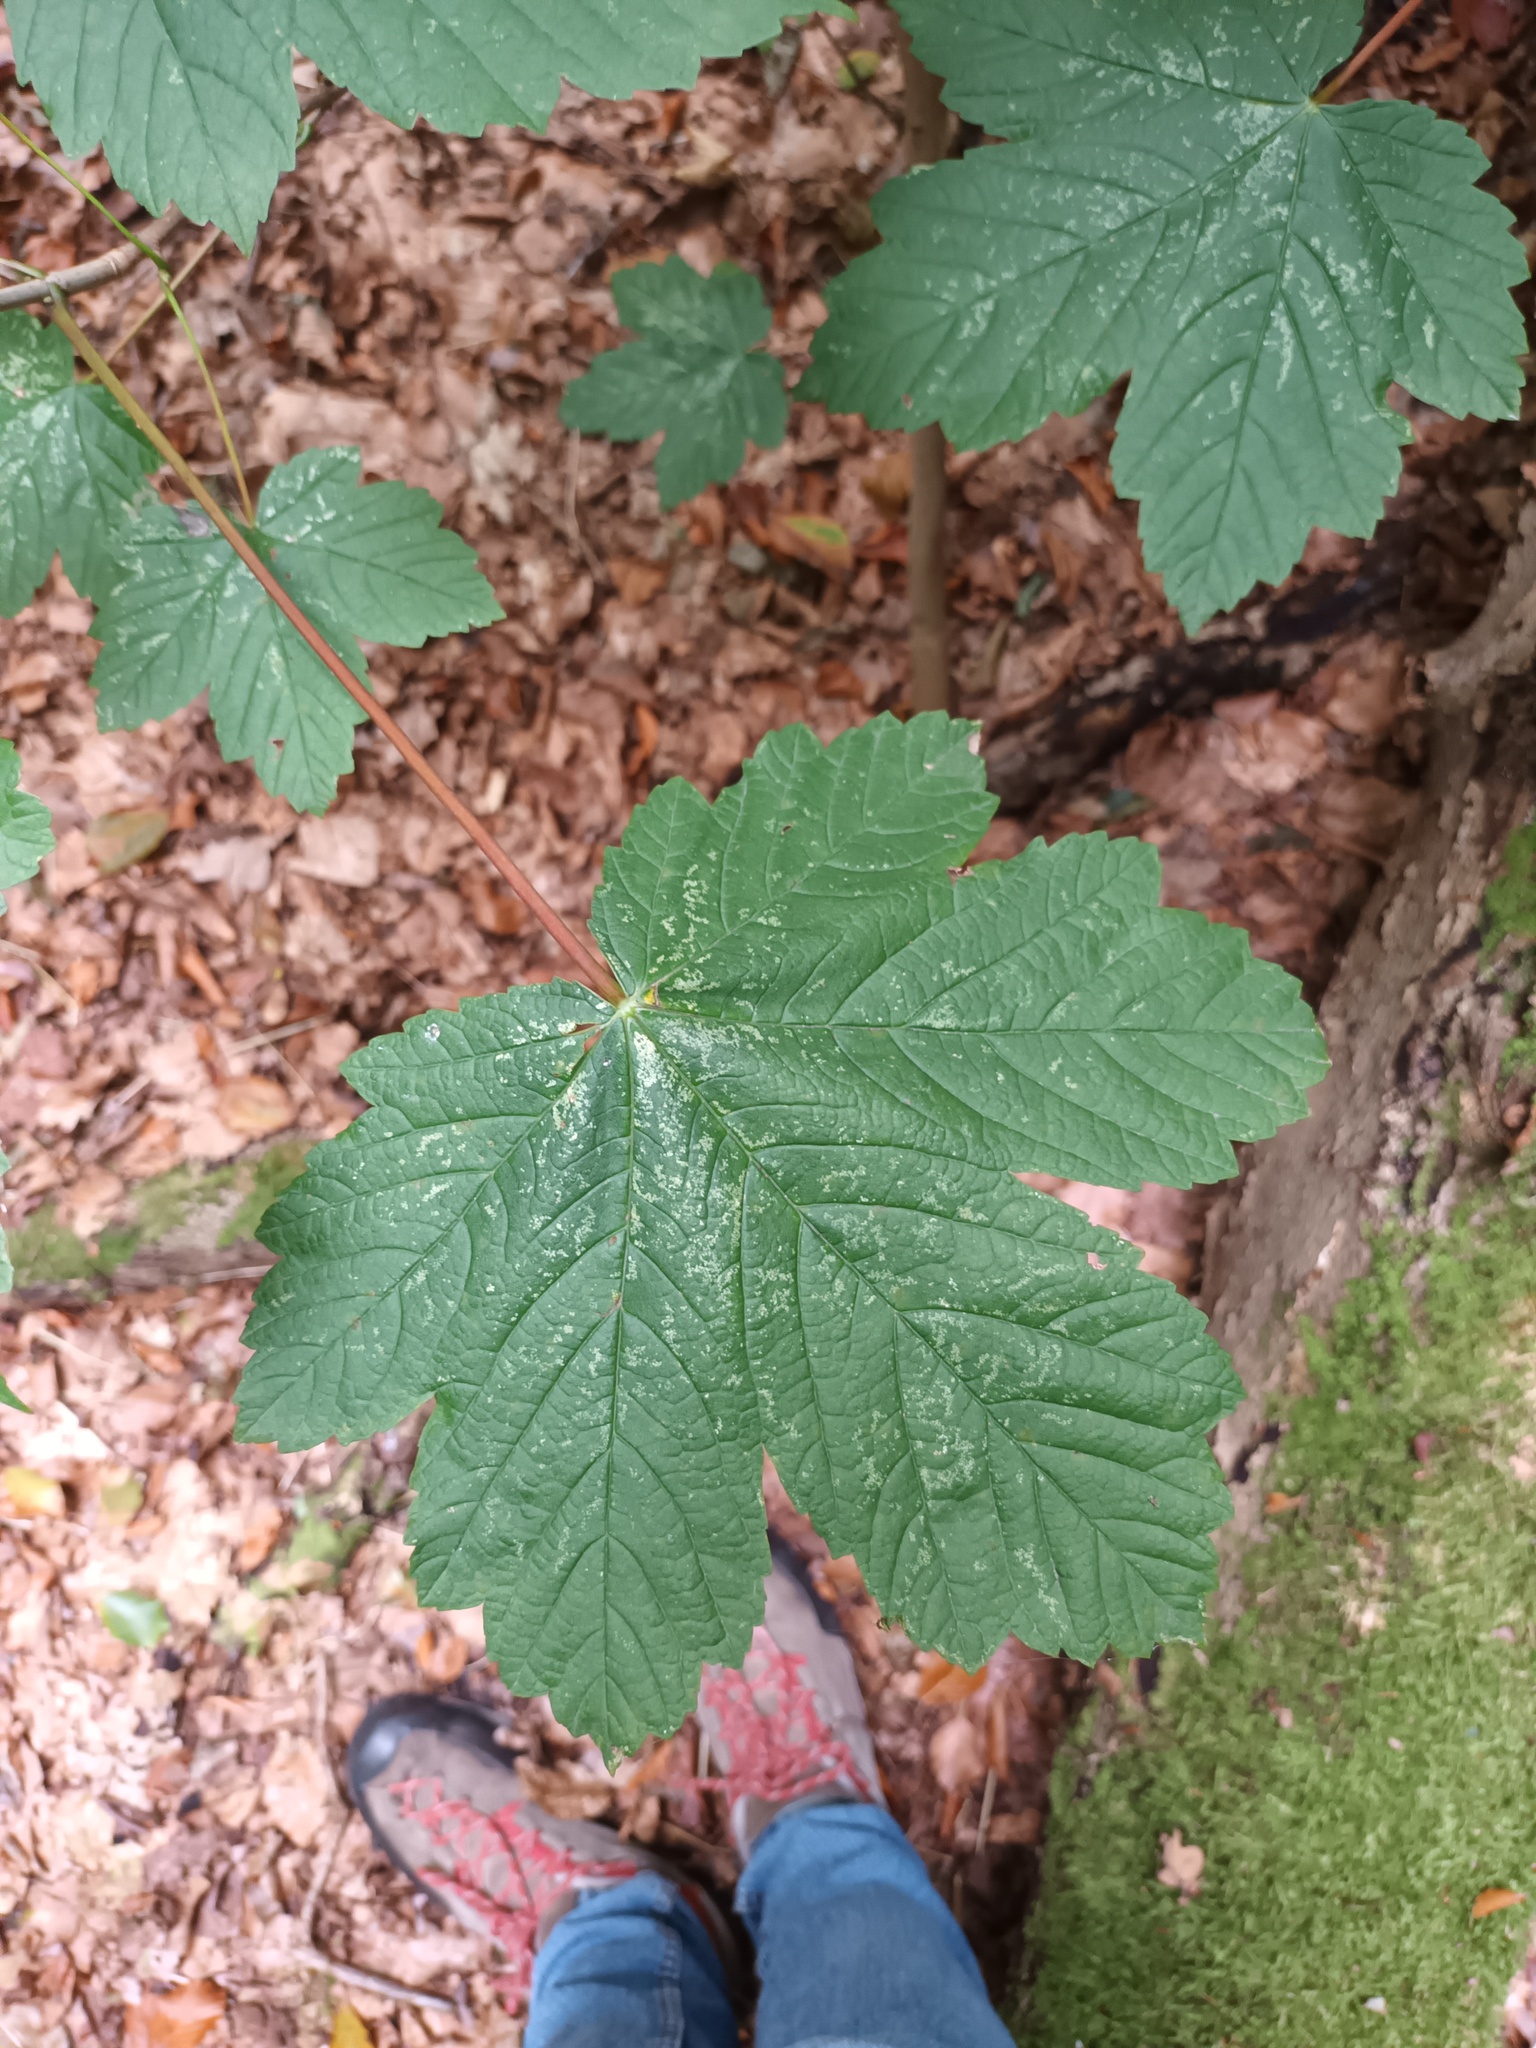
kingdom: Plantae
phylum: Tracheophyta
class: Magnoliopsida
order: Sapindales
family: Sapindaceae
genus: Acer
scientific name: Acer pseudoplatanus
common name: Sycamore
